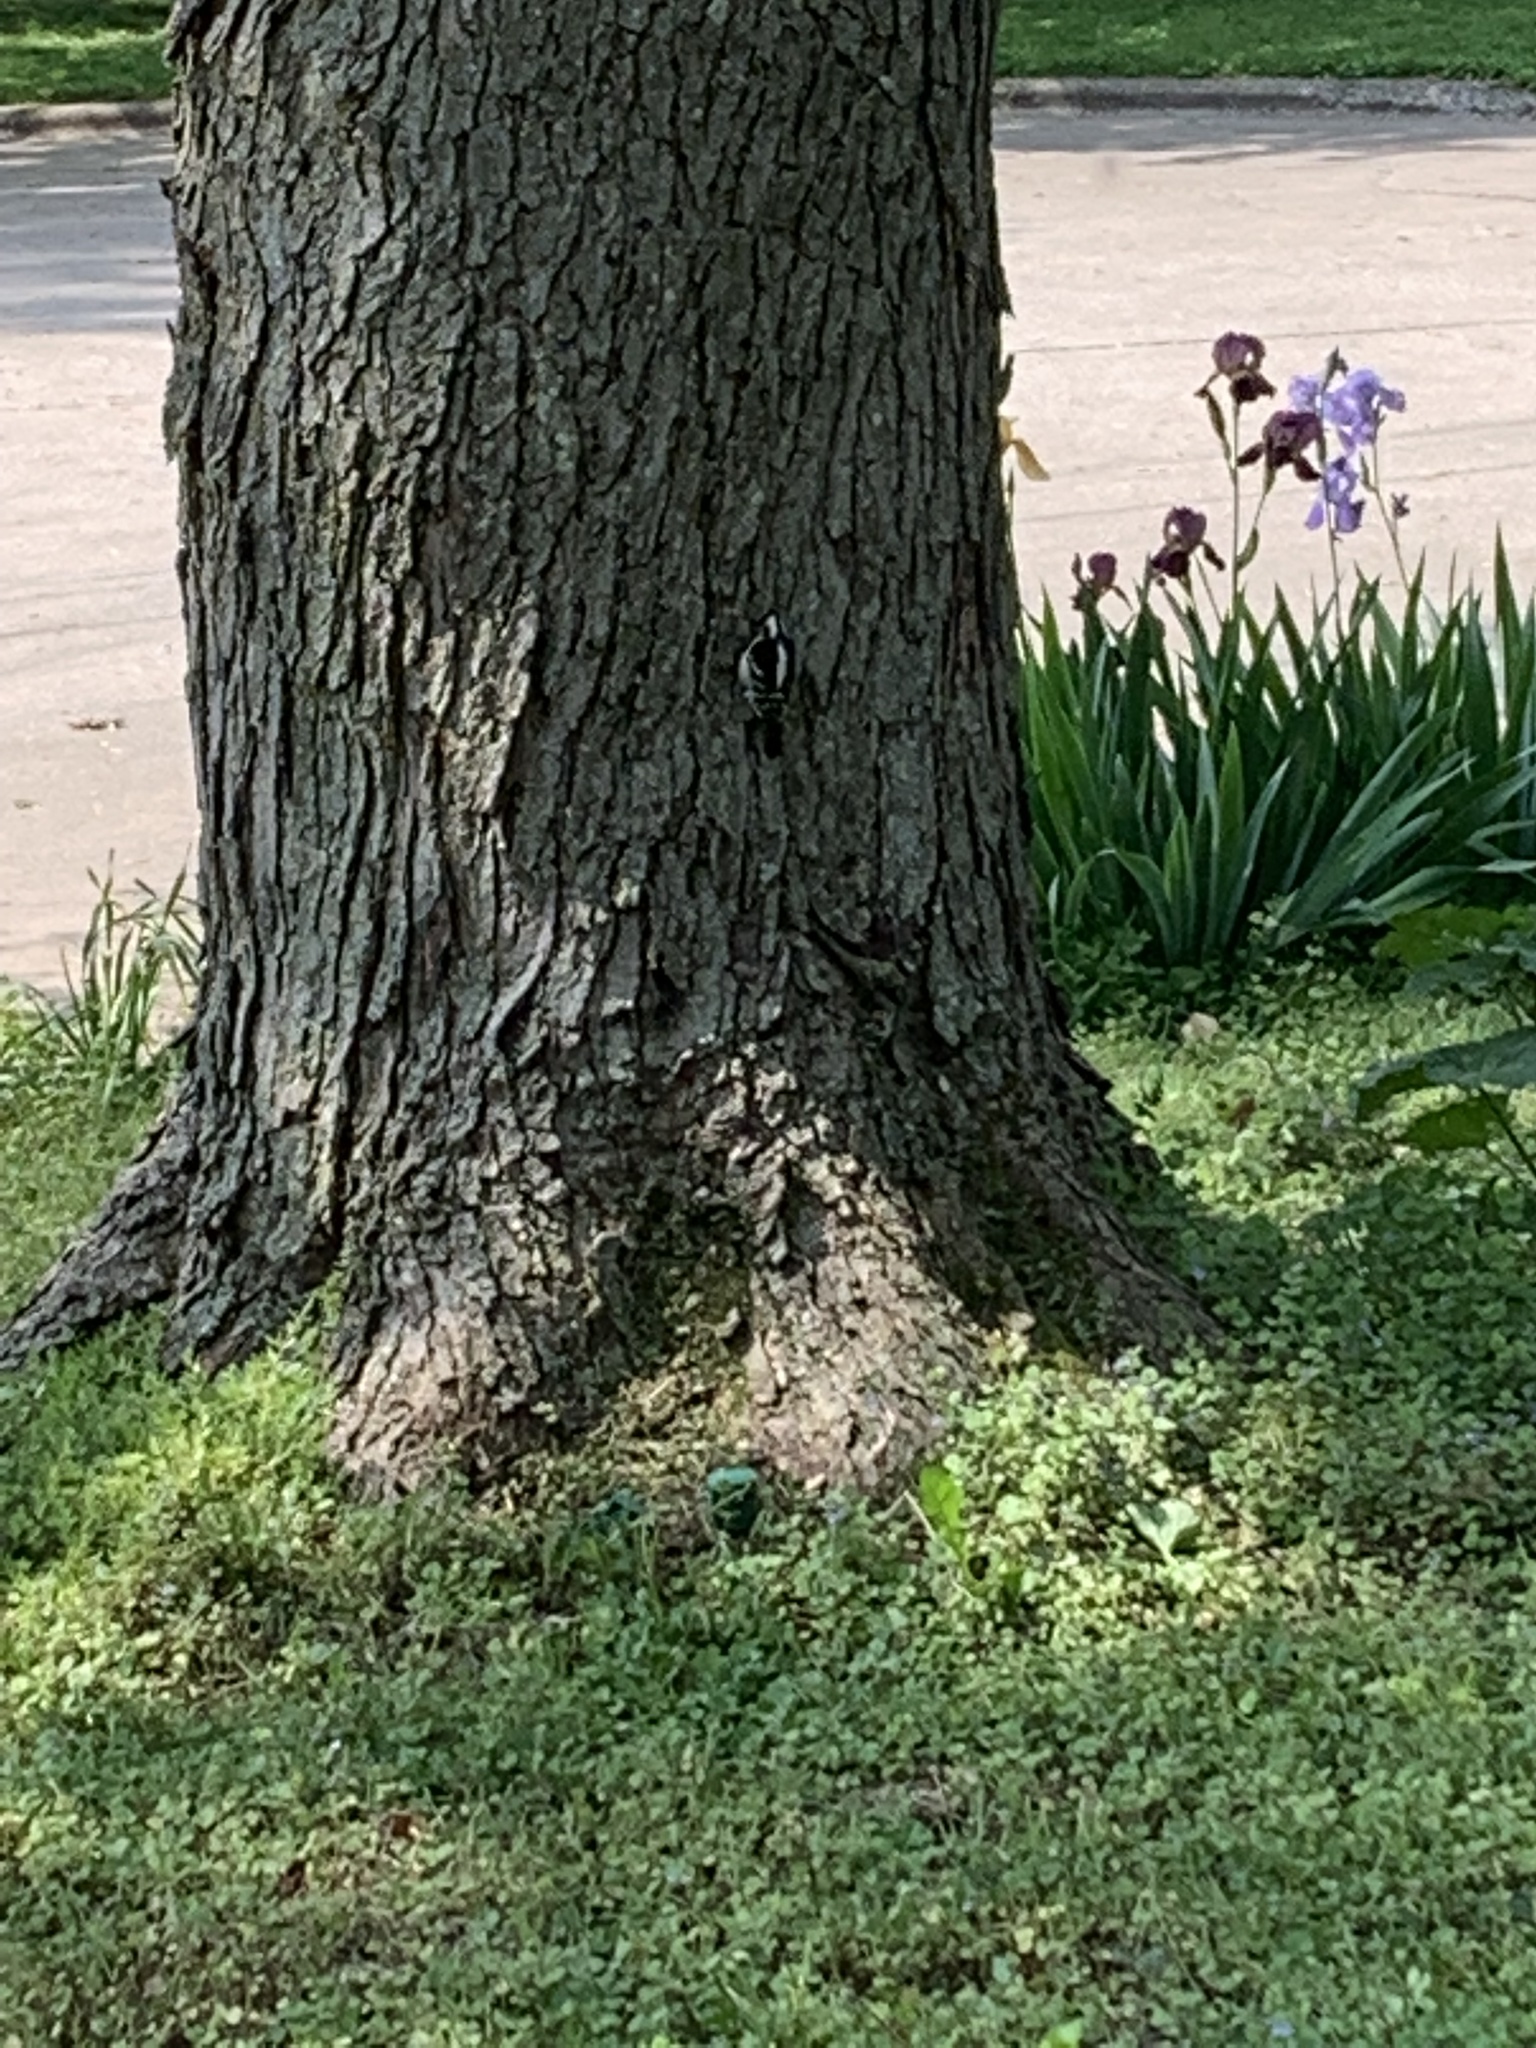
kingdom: Animalia
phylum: Chordata
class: Aves
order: Piciformes
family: Picidae
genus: Dryobates
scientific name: Dryobates pubescens
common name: Downy woodpecker
